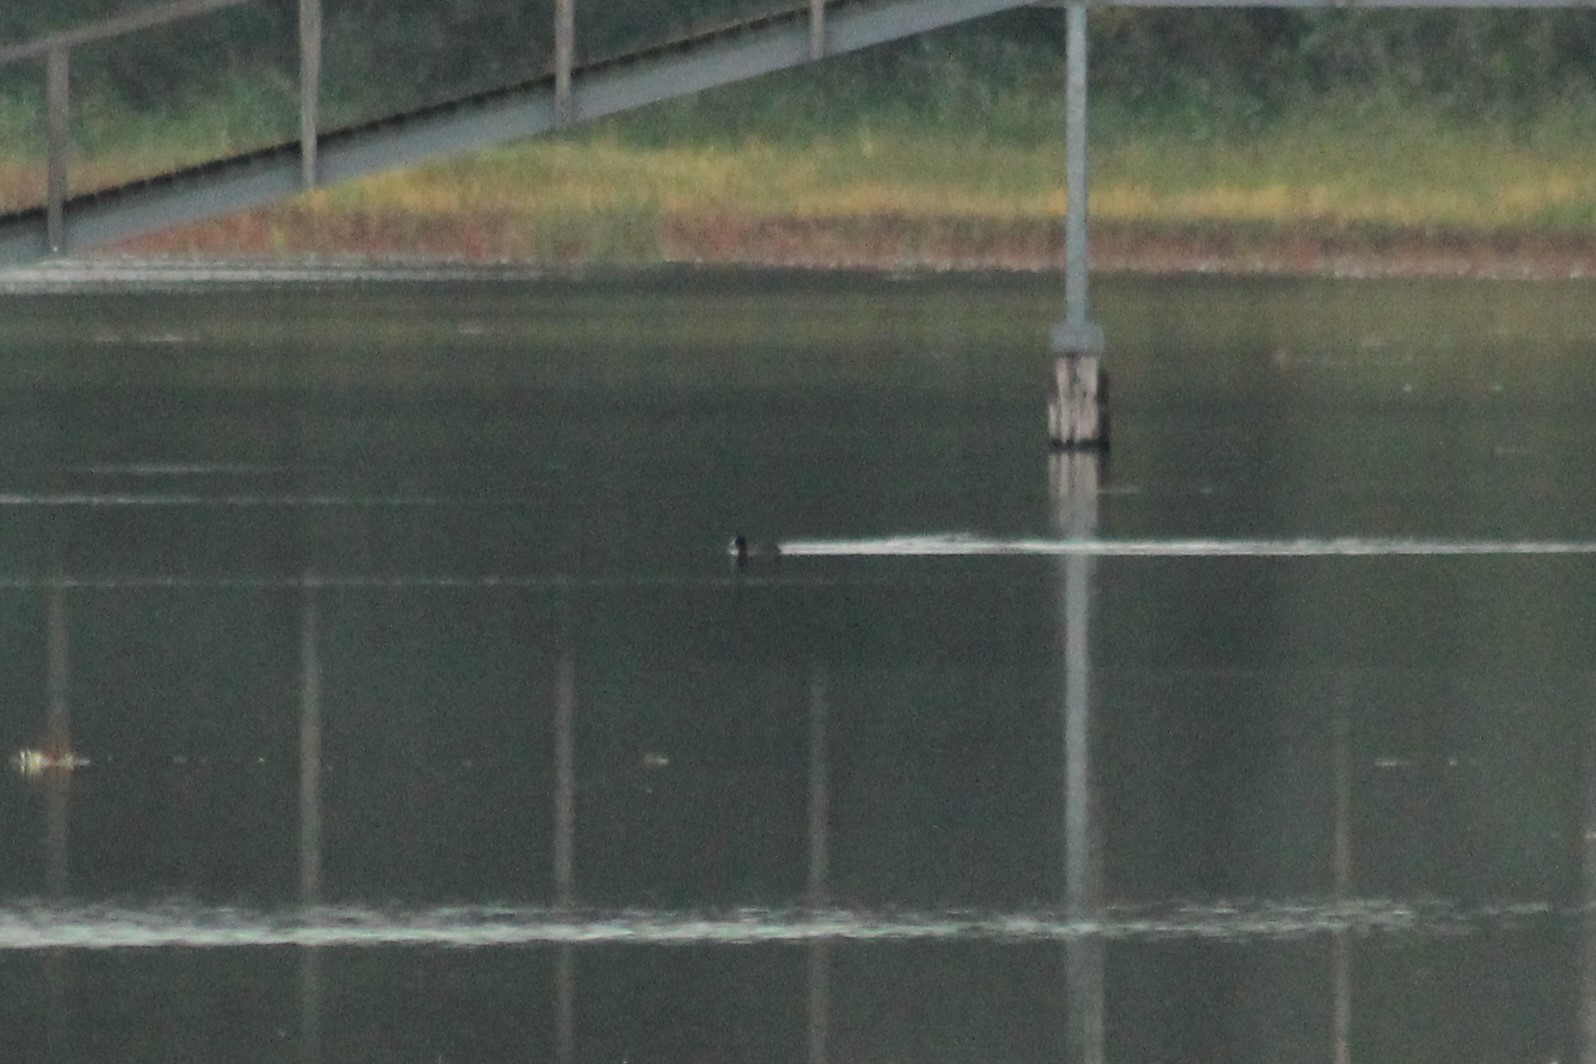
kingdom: Animalia
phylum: Chordata
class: Aves
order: Gruiformes
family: Rallidae
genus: Fulica
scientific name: Fulica atra
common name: Eurasian coot
